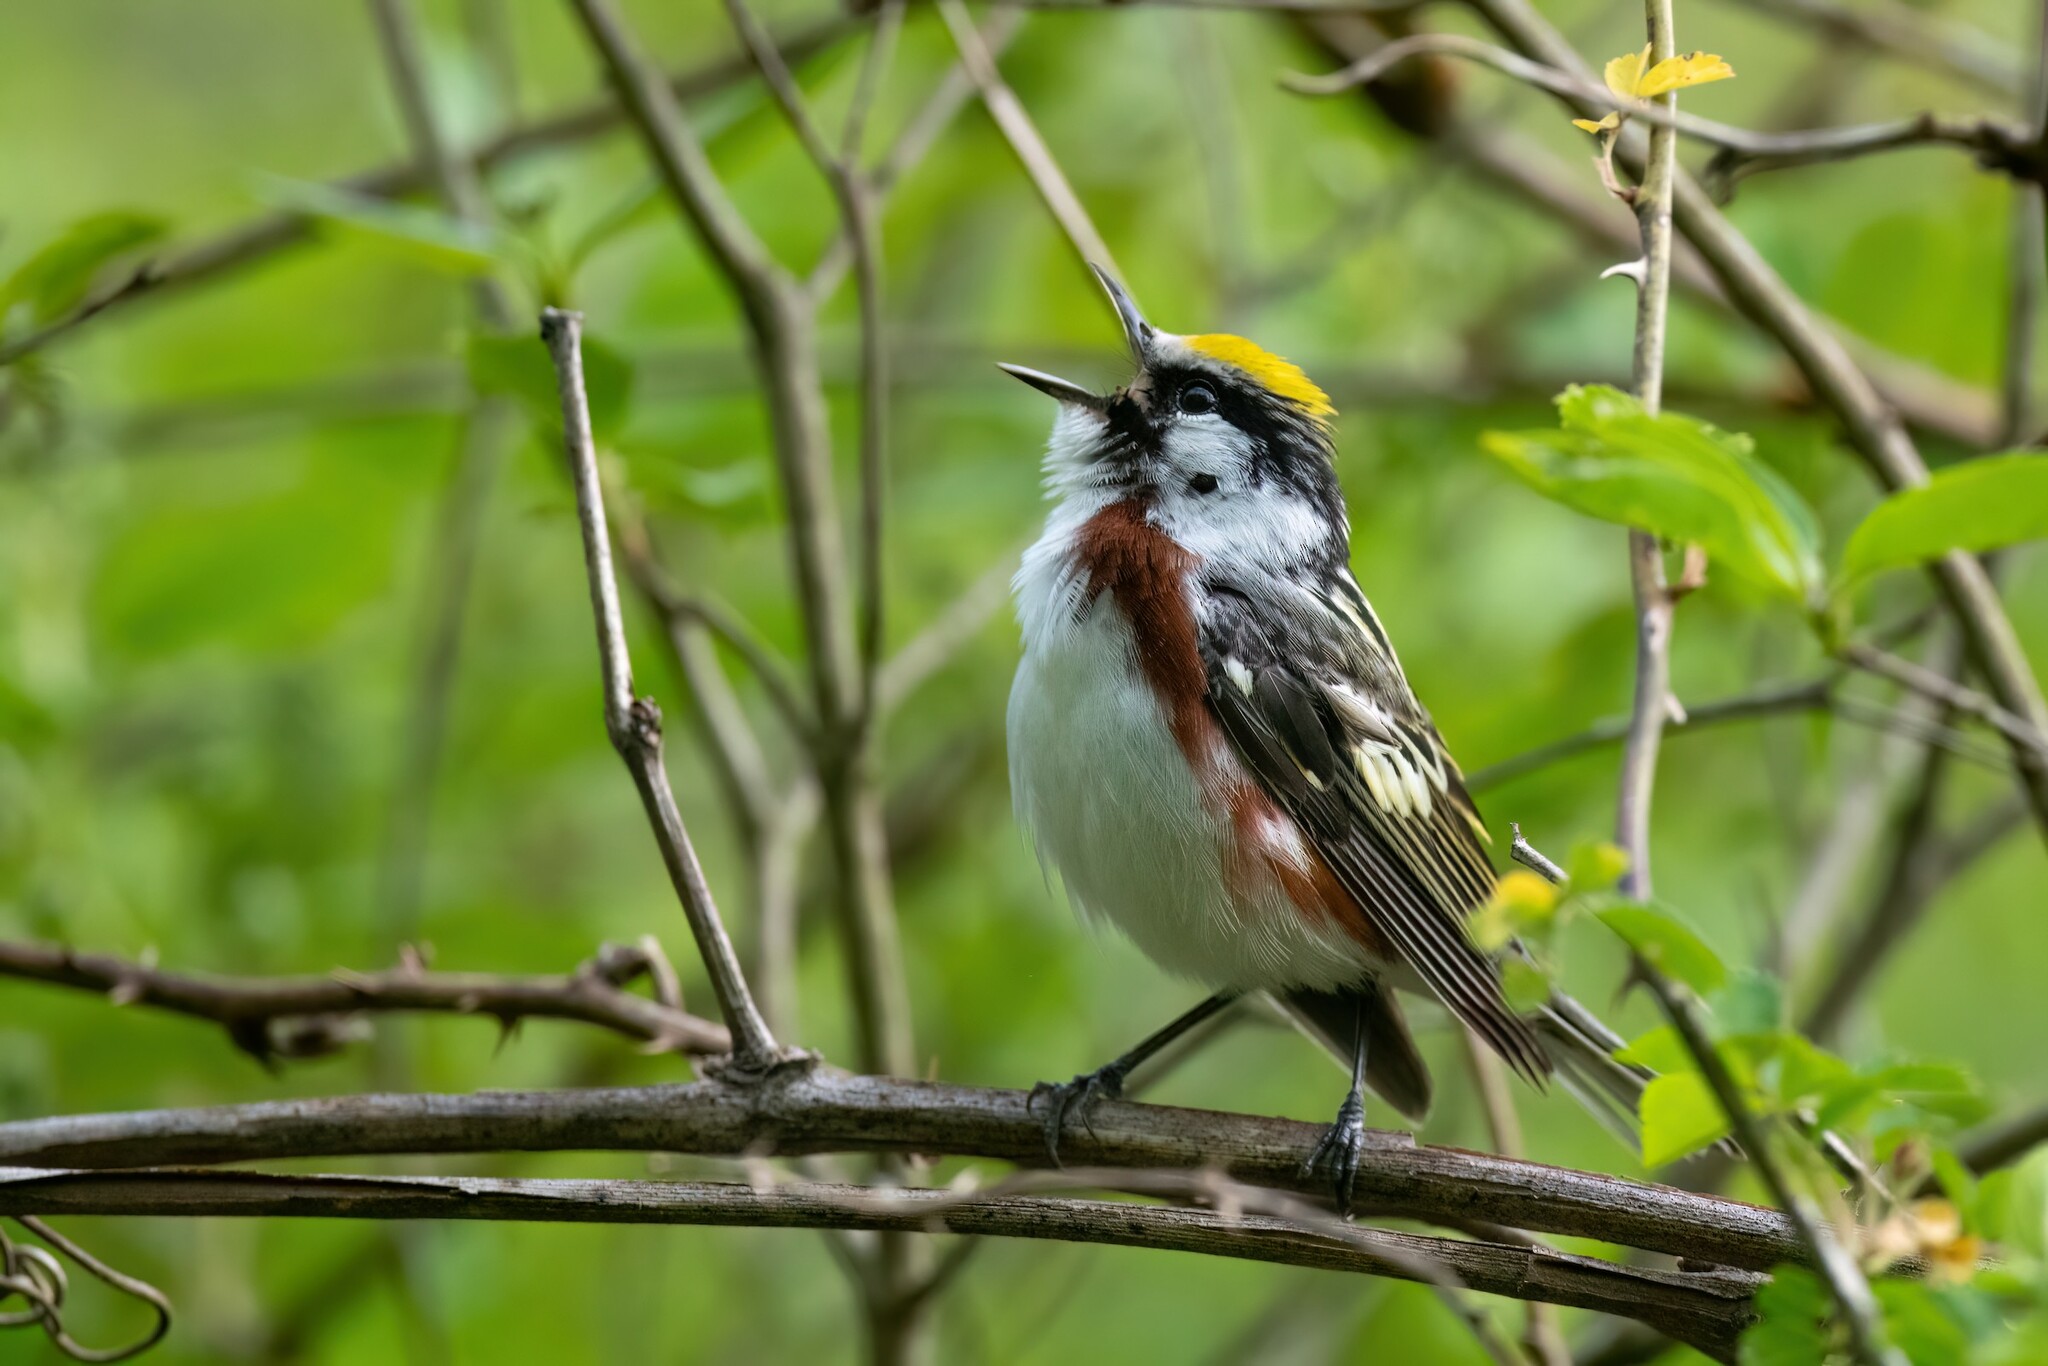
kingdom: Animalia
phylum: Chordata
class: Aves
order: Passeriformes
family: Parulidae
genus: Setophaga
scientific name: Setophaga pensylvanica
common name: Chestnut-sided warbler
